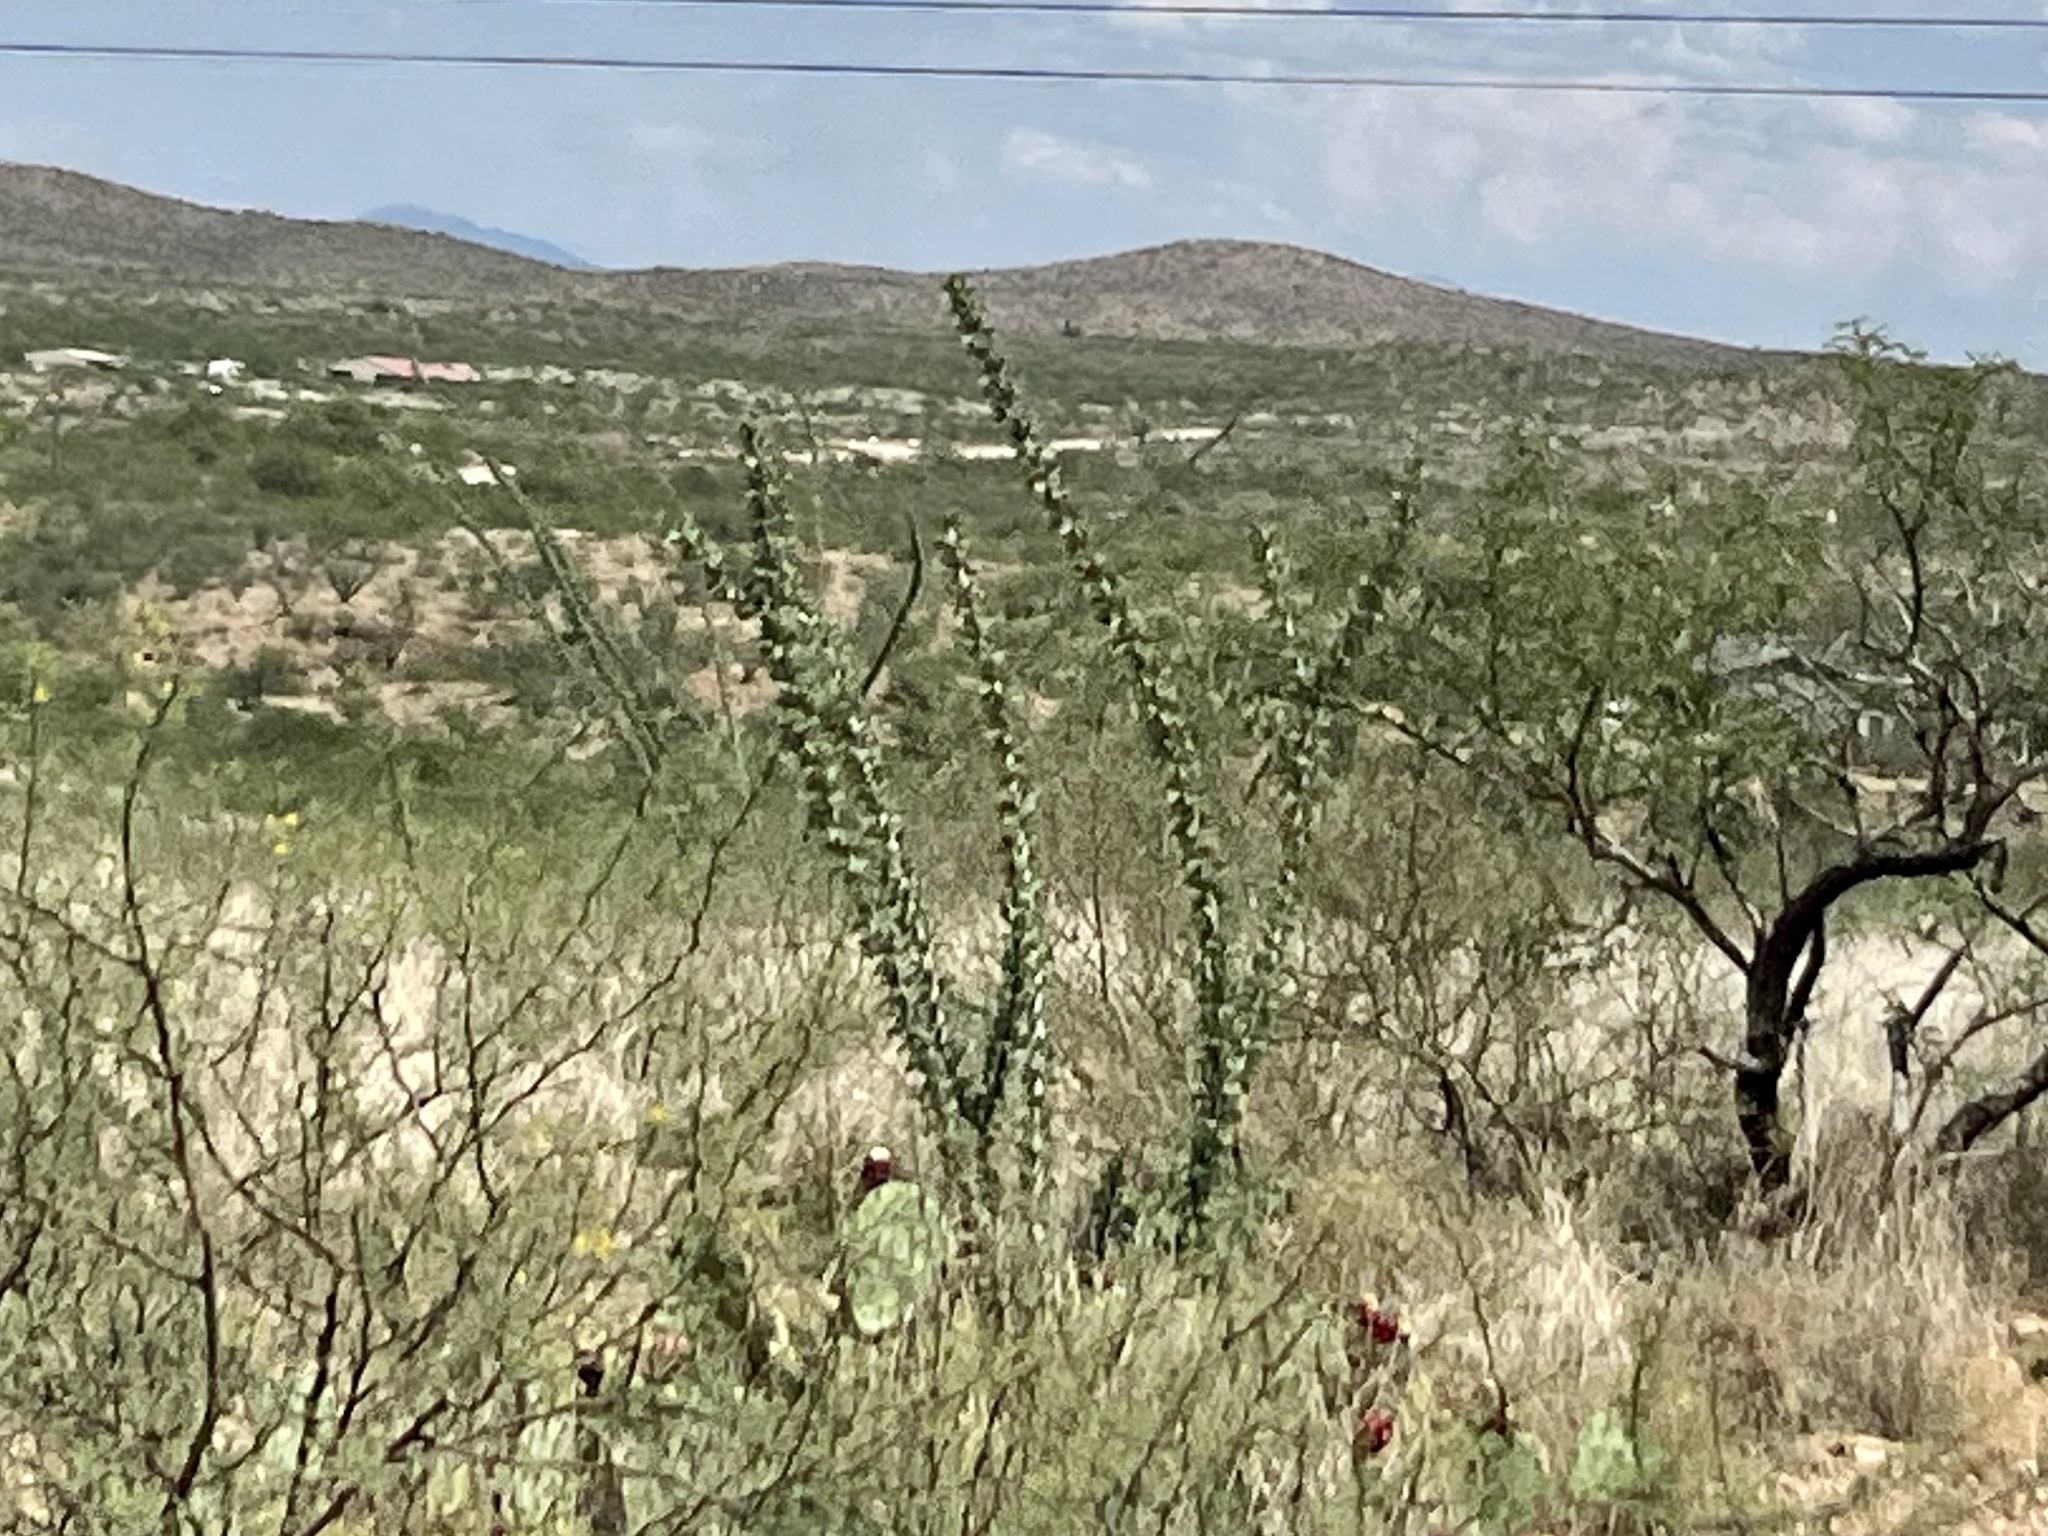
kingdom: Plantae
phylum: Tracheophyta
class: Magnoliopsida
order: Ericales
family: Fouquieriaceae
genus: Fouquieria
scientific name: Fouquieria splendens
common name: Vine-cactus
